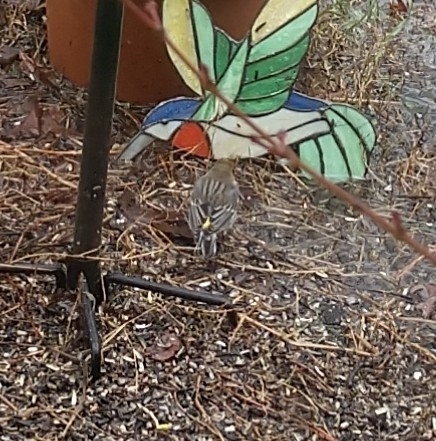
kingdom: Animalia
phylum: Chordata
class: Aves
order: Passeriformes
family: Parulidae
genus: Setophaga
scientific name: Setophaga coronata
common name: Myrtle warbler
